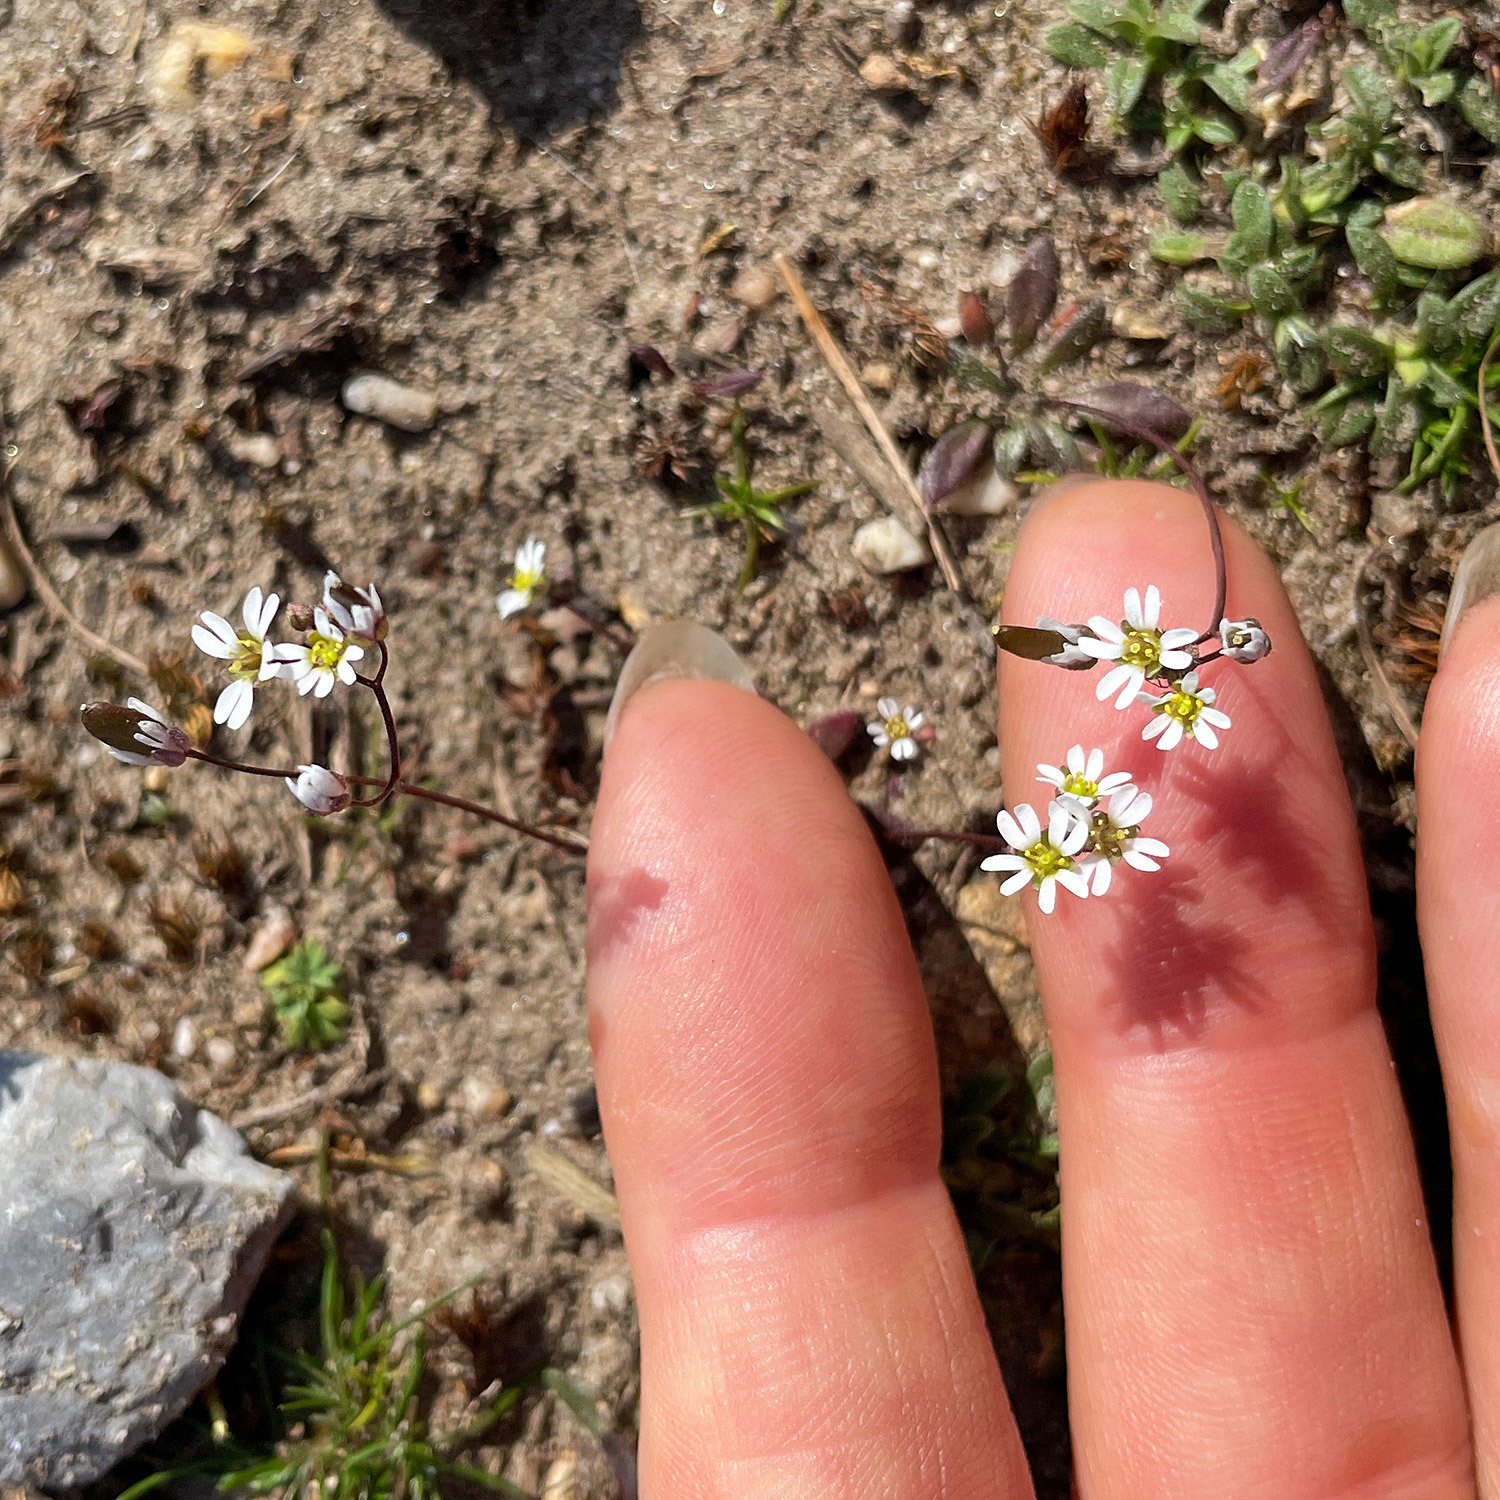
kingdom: Plantae
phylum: Tracheophyta
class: Magnoliopsida
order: Brassicales
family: Brassicaceae
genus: Draba
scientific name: Draba verna
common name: Spring draba
